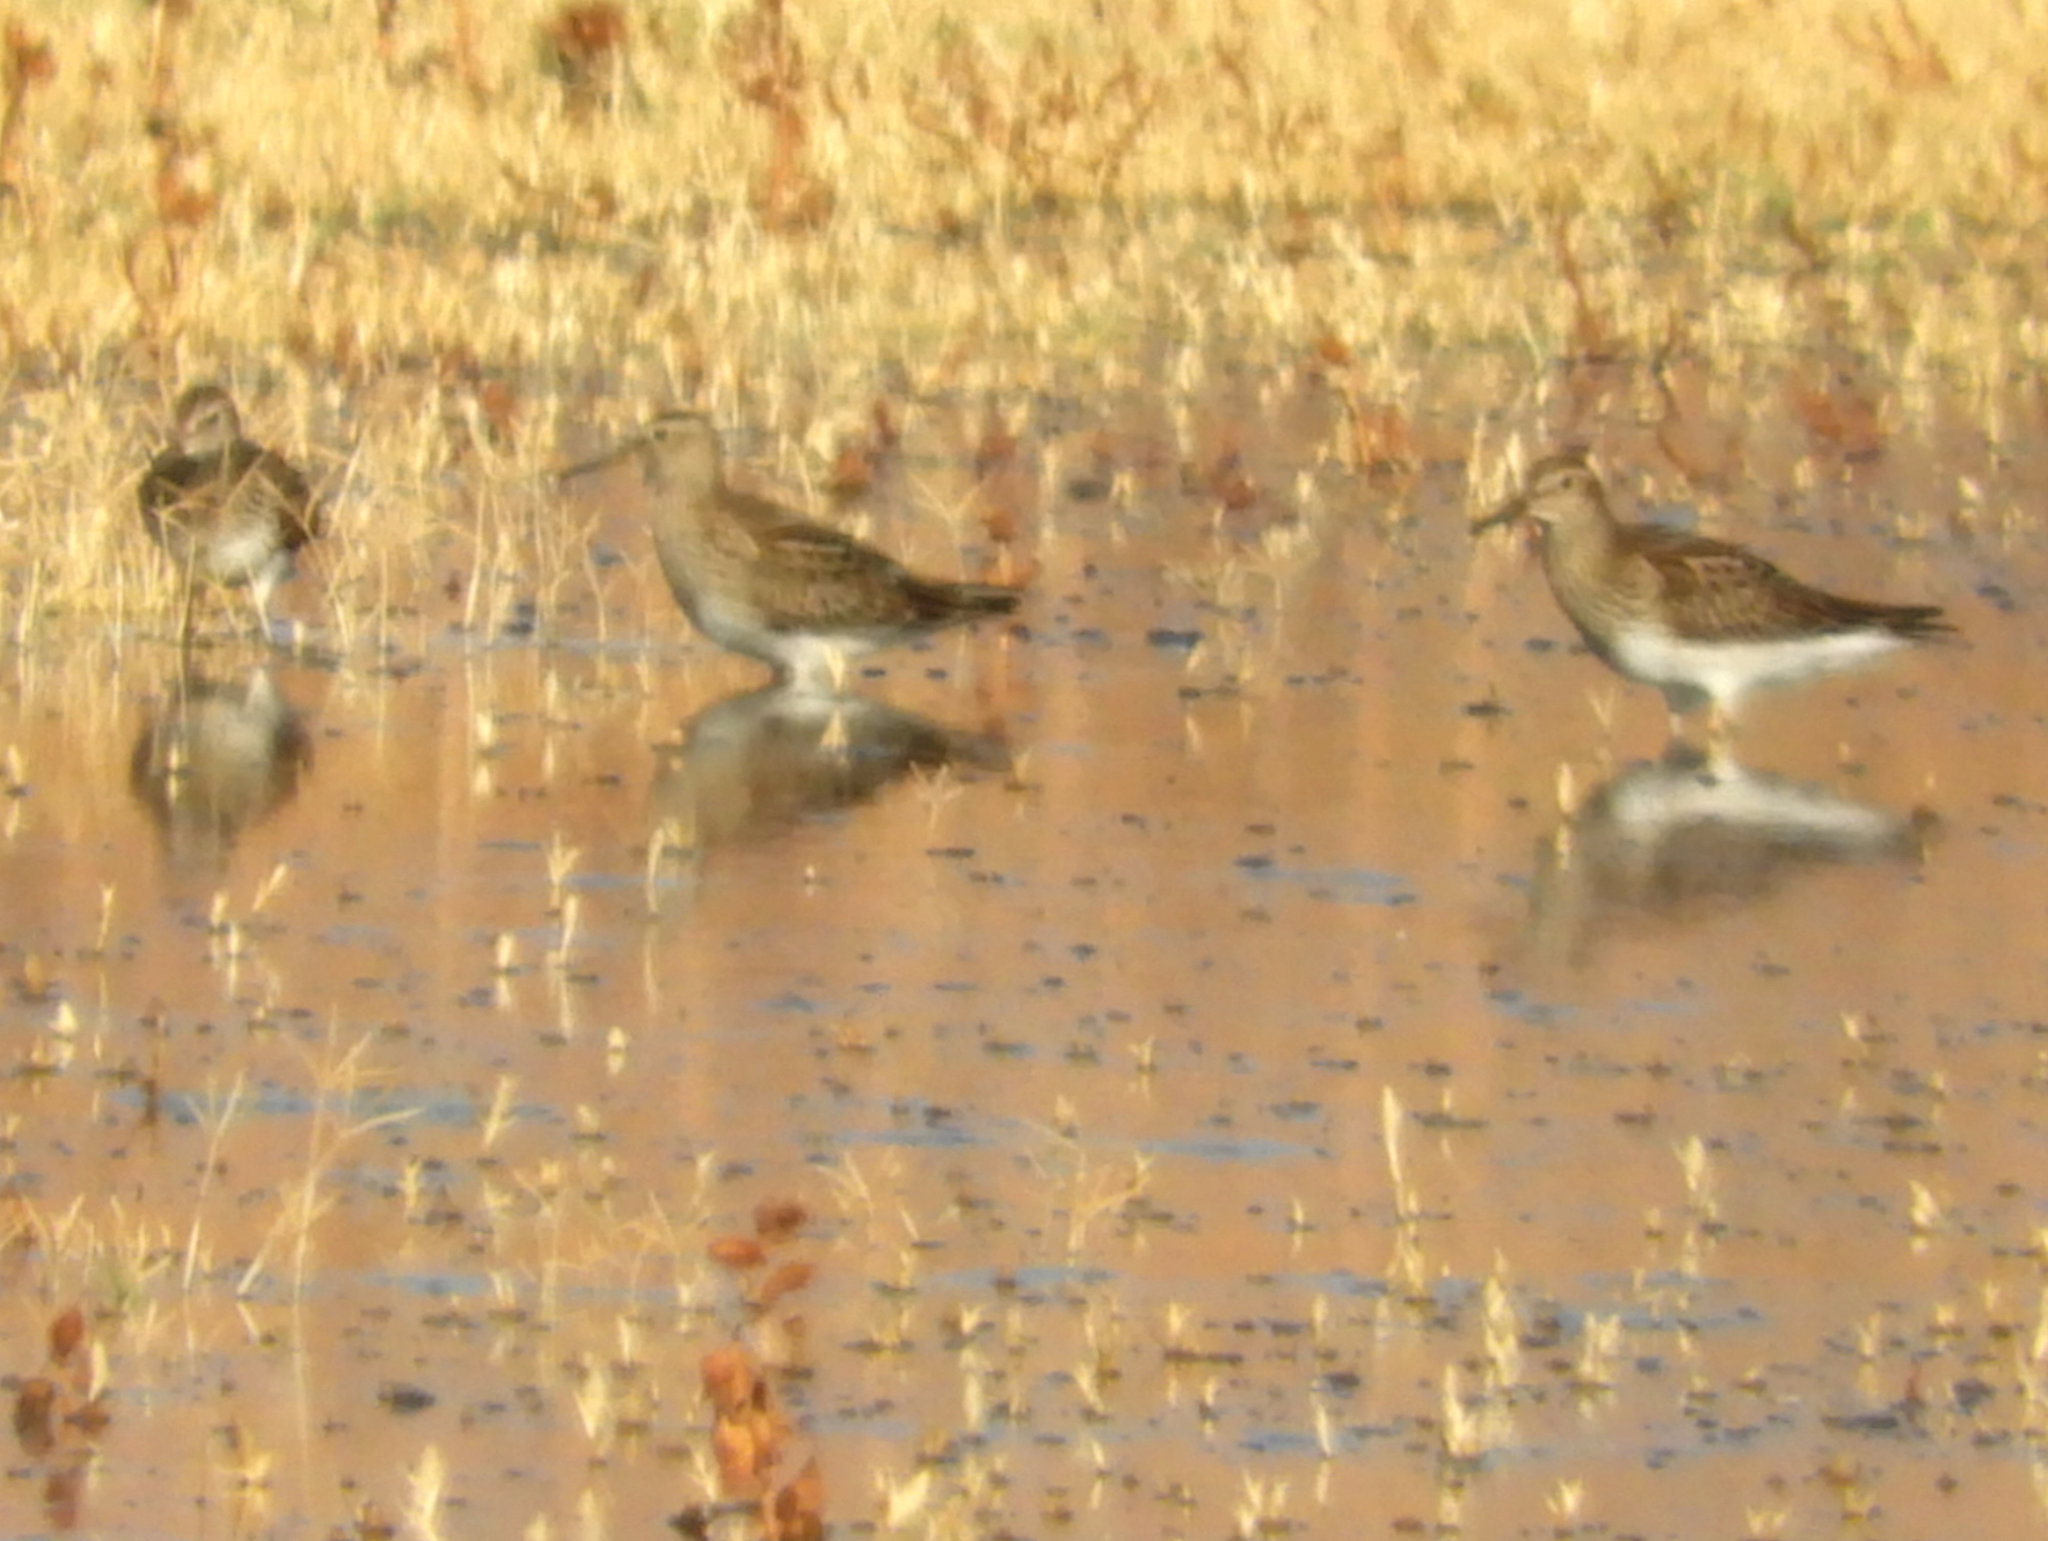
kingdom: Animalia
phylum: Chordata
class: Aves
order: Charadriiformes
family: Scolopacidae
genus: Calidris
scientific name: Calidris melanotos
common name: Pectoral sandpiper
